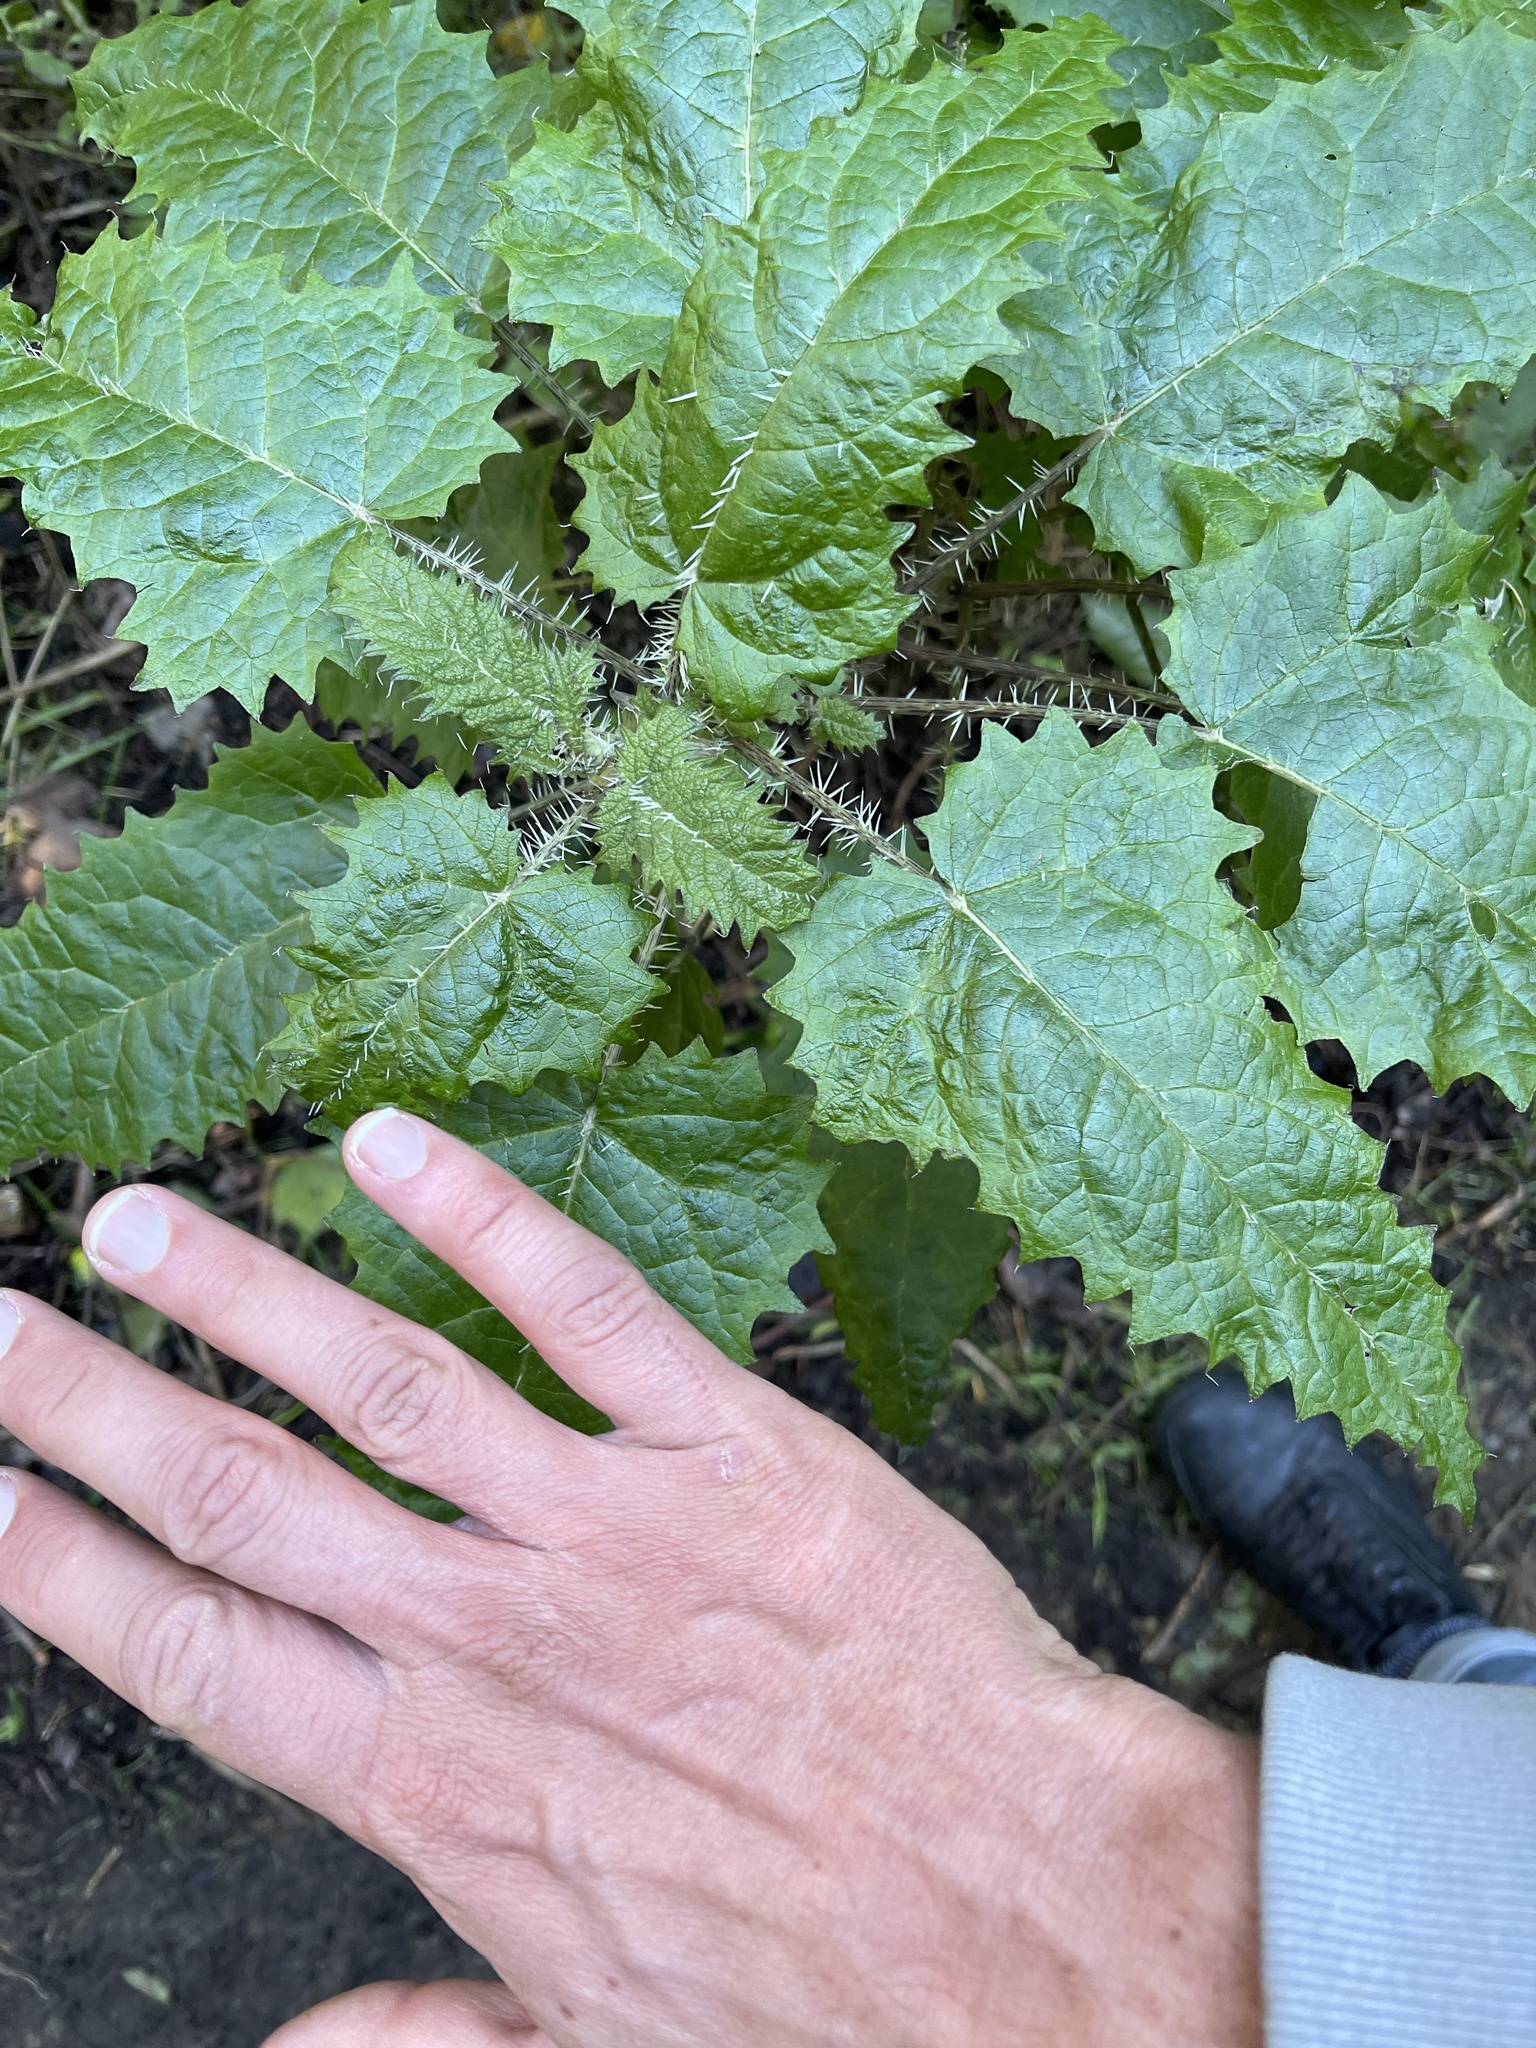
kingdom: Plantae
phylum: Tracheophyta
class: Magnoliopsida
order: Rosales
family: Urticaceae
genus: Urtica
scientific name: Urtica ferox
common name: Tree nettle
